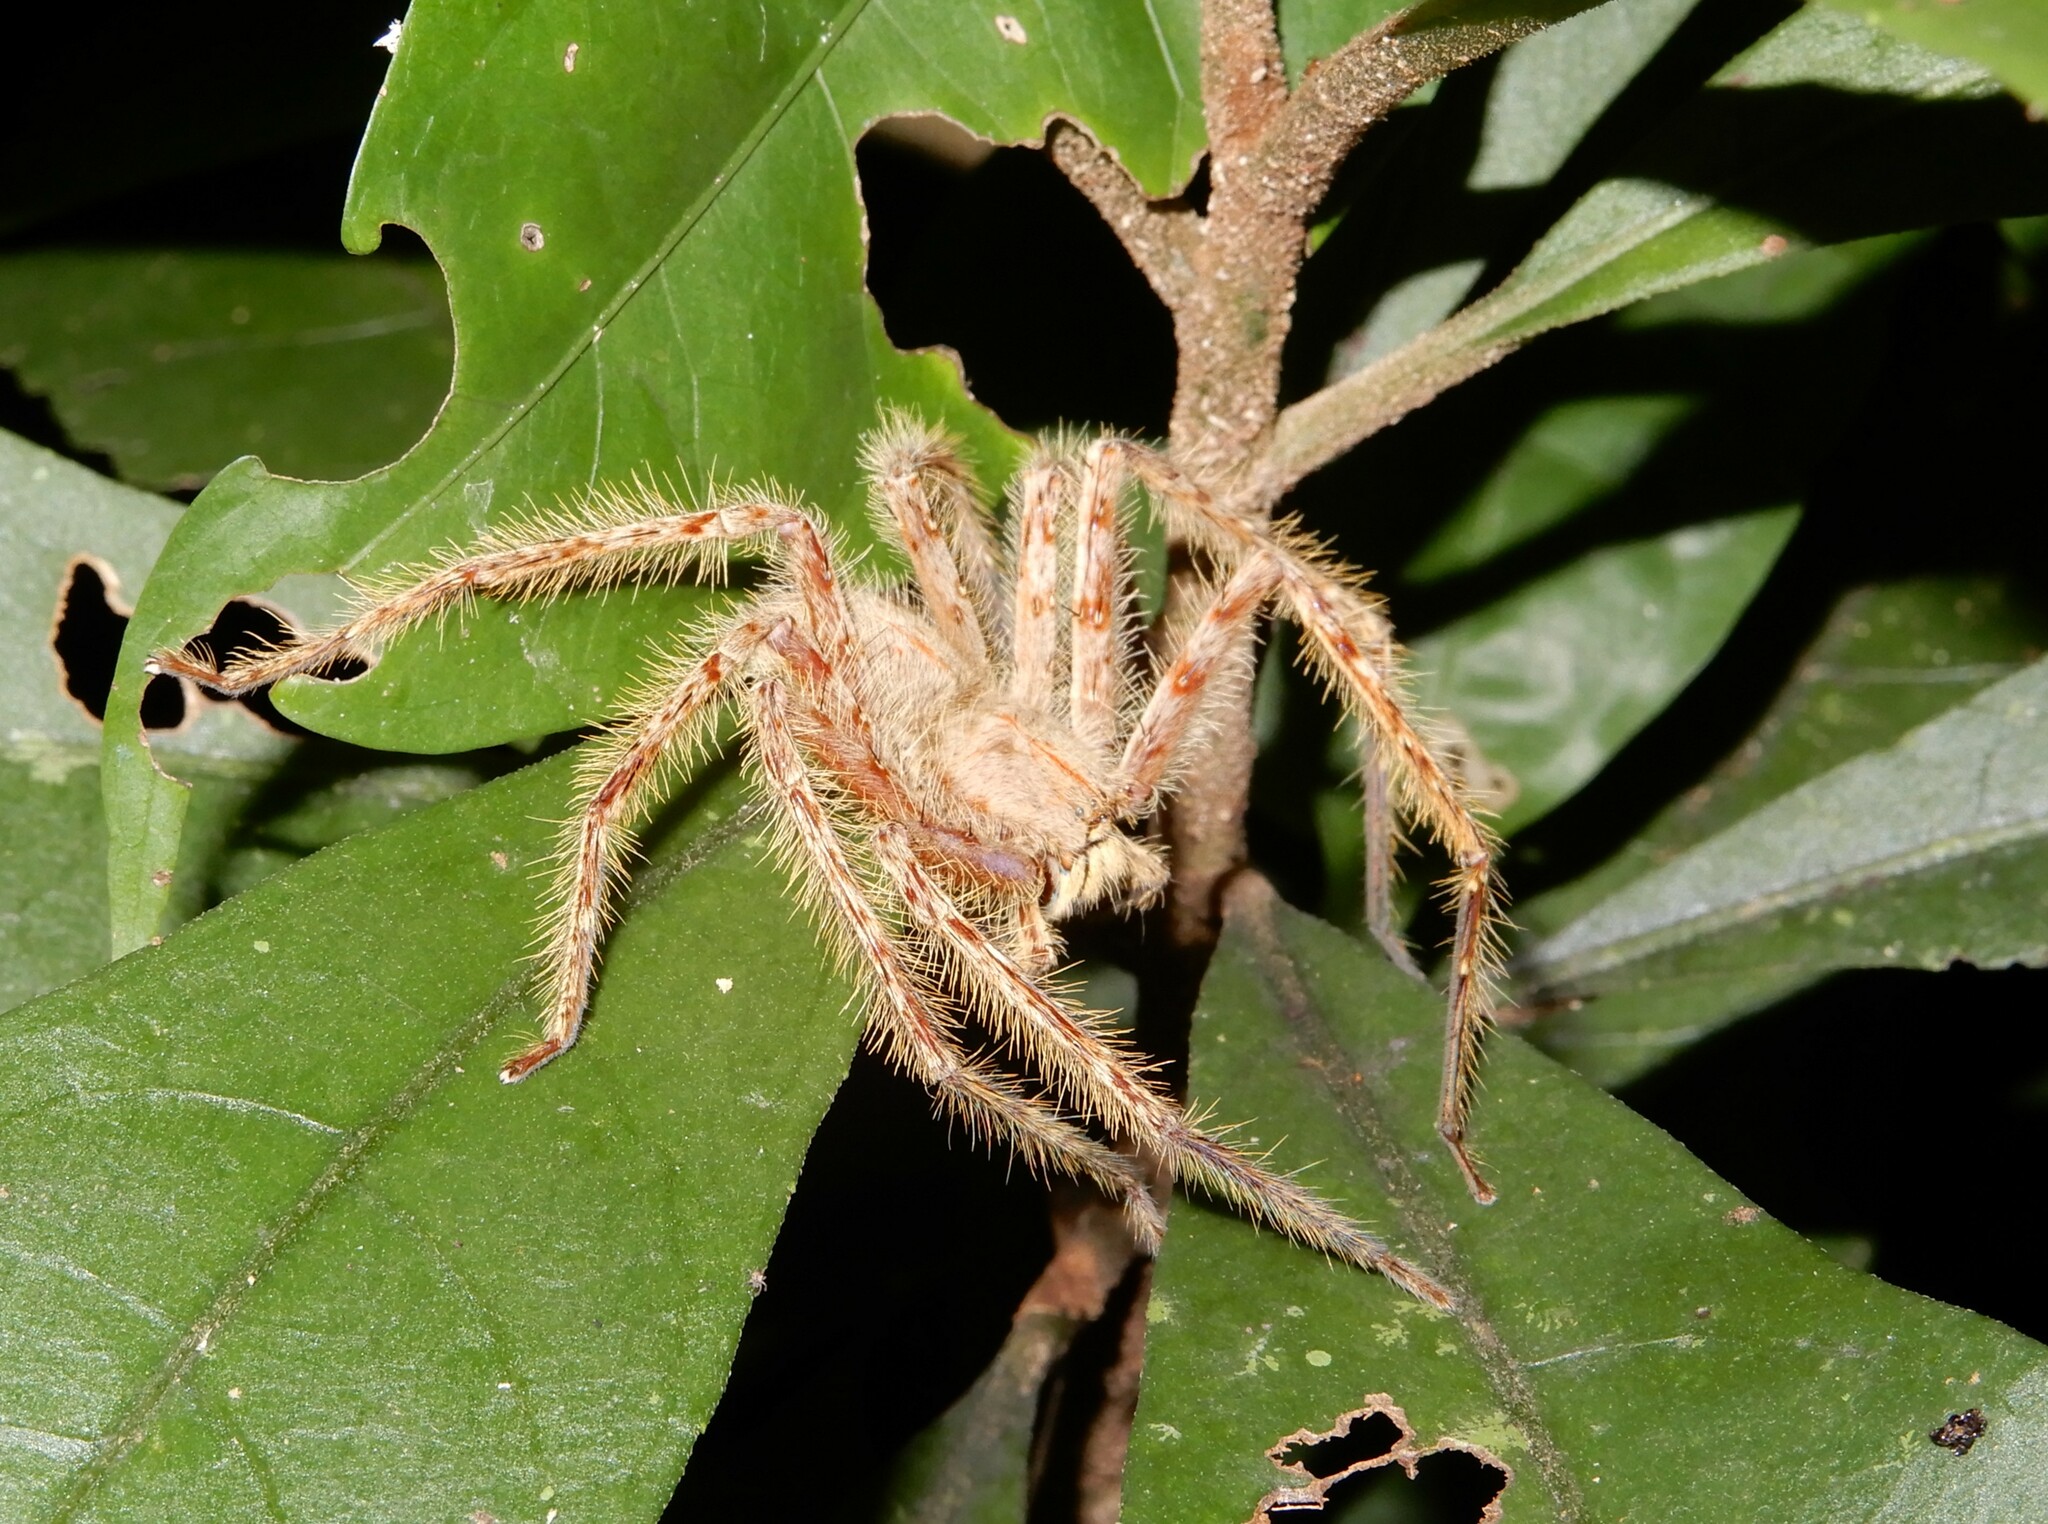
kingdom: Animalia
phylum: Arthropoda
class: Arachnida
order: Araneae
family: Sparassidae
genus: Heteropoda
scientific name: Heteropoda davidbowie
